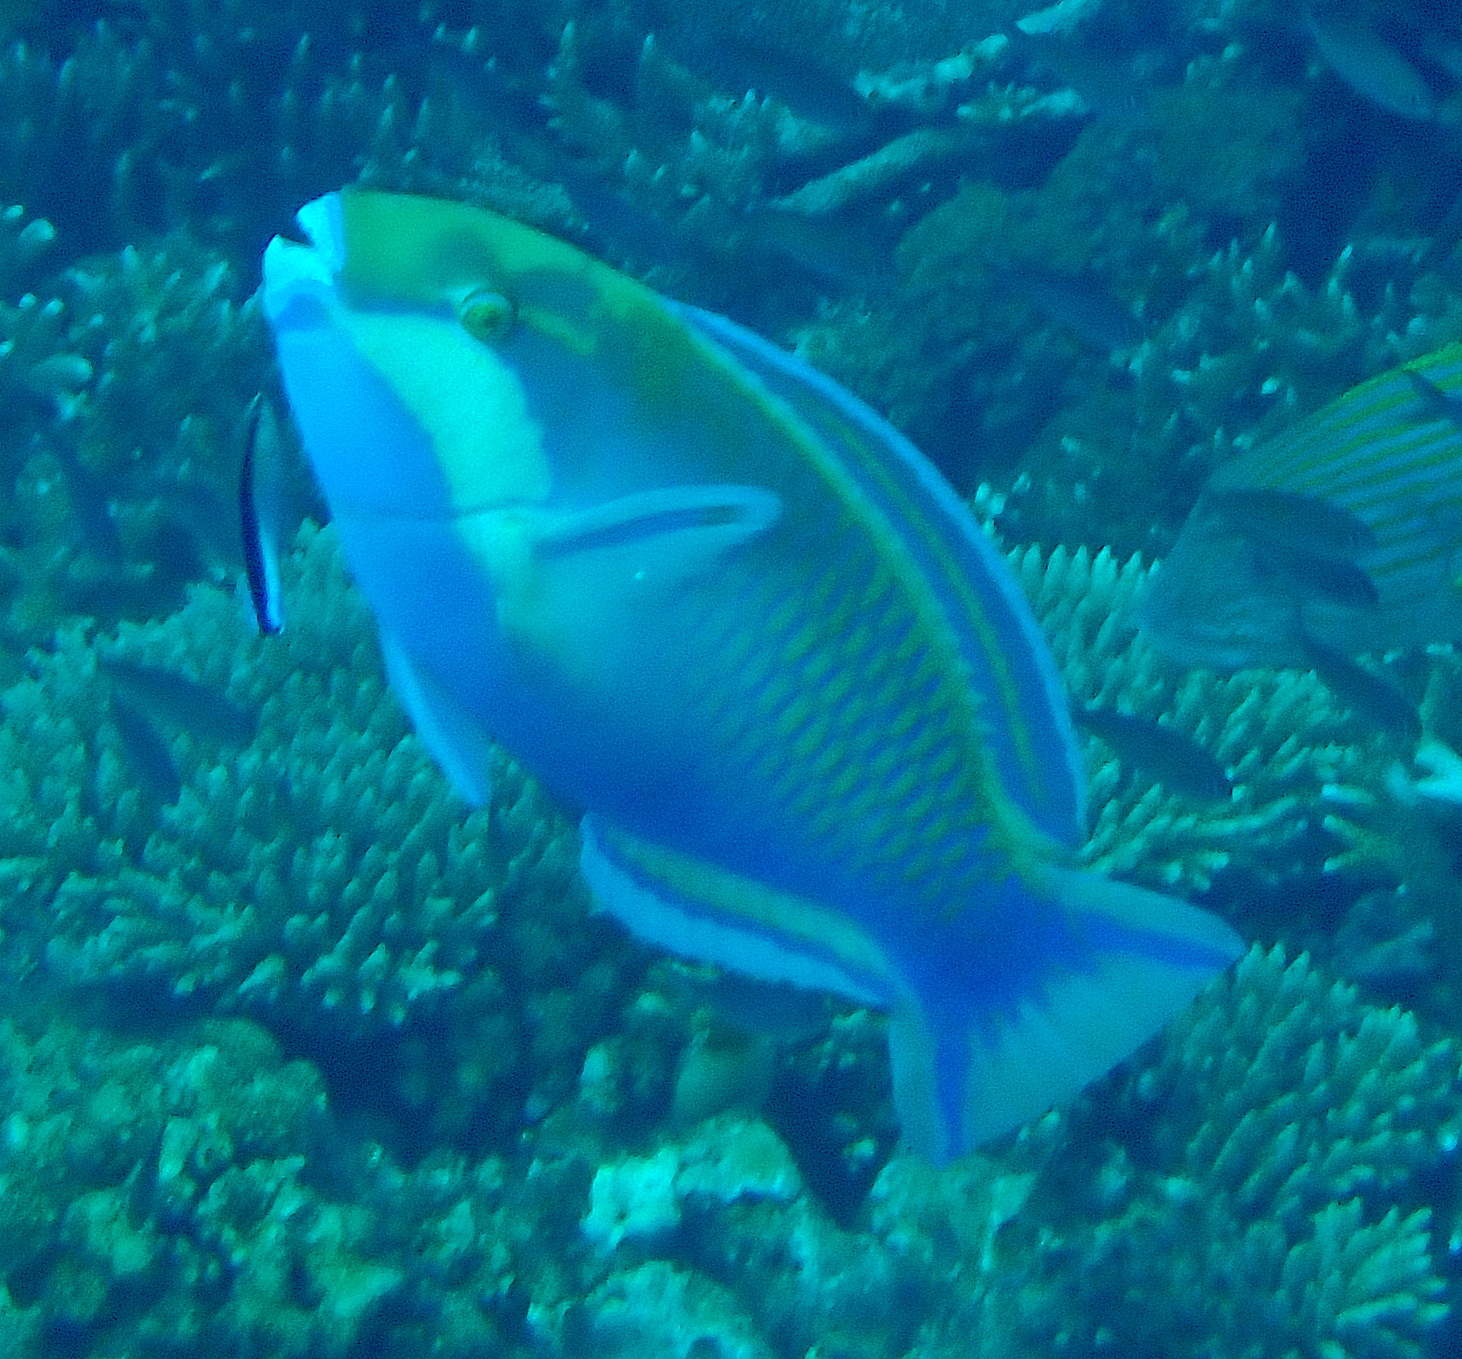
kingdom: Animalia
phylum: Chordata
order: Perciformes
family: Scaridae
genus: Chlorurus
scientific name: Chlorurus bleekeri
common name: Bleeker's parrotfish
